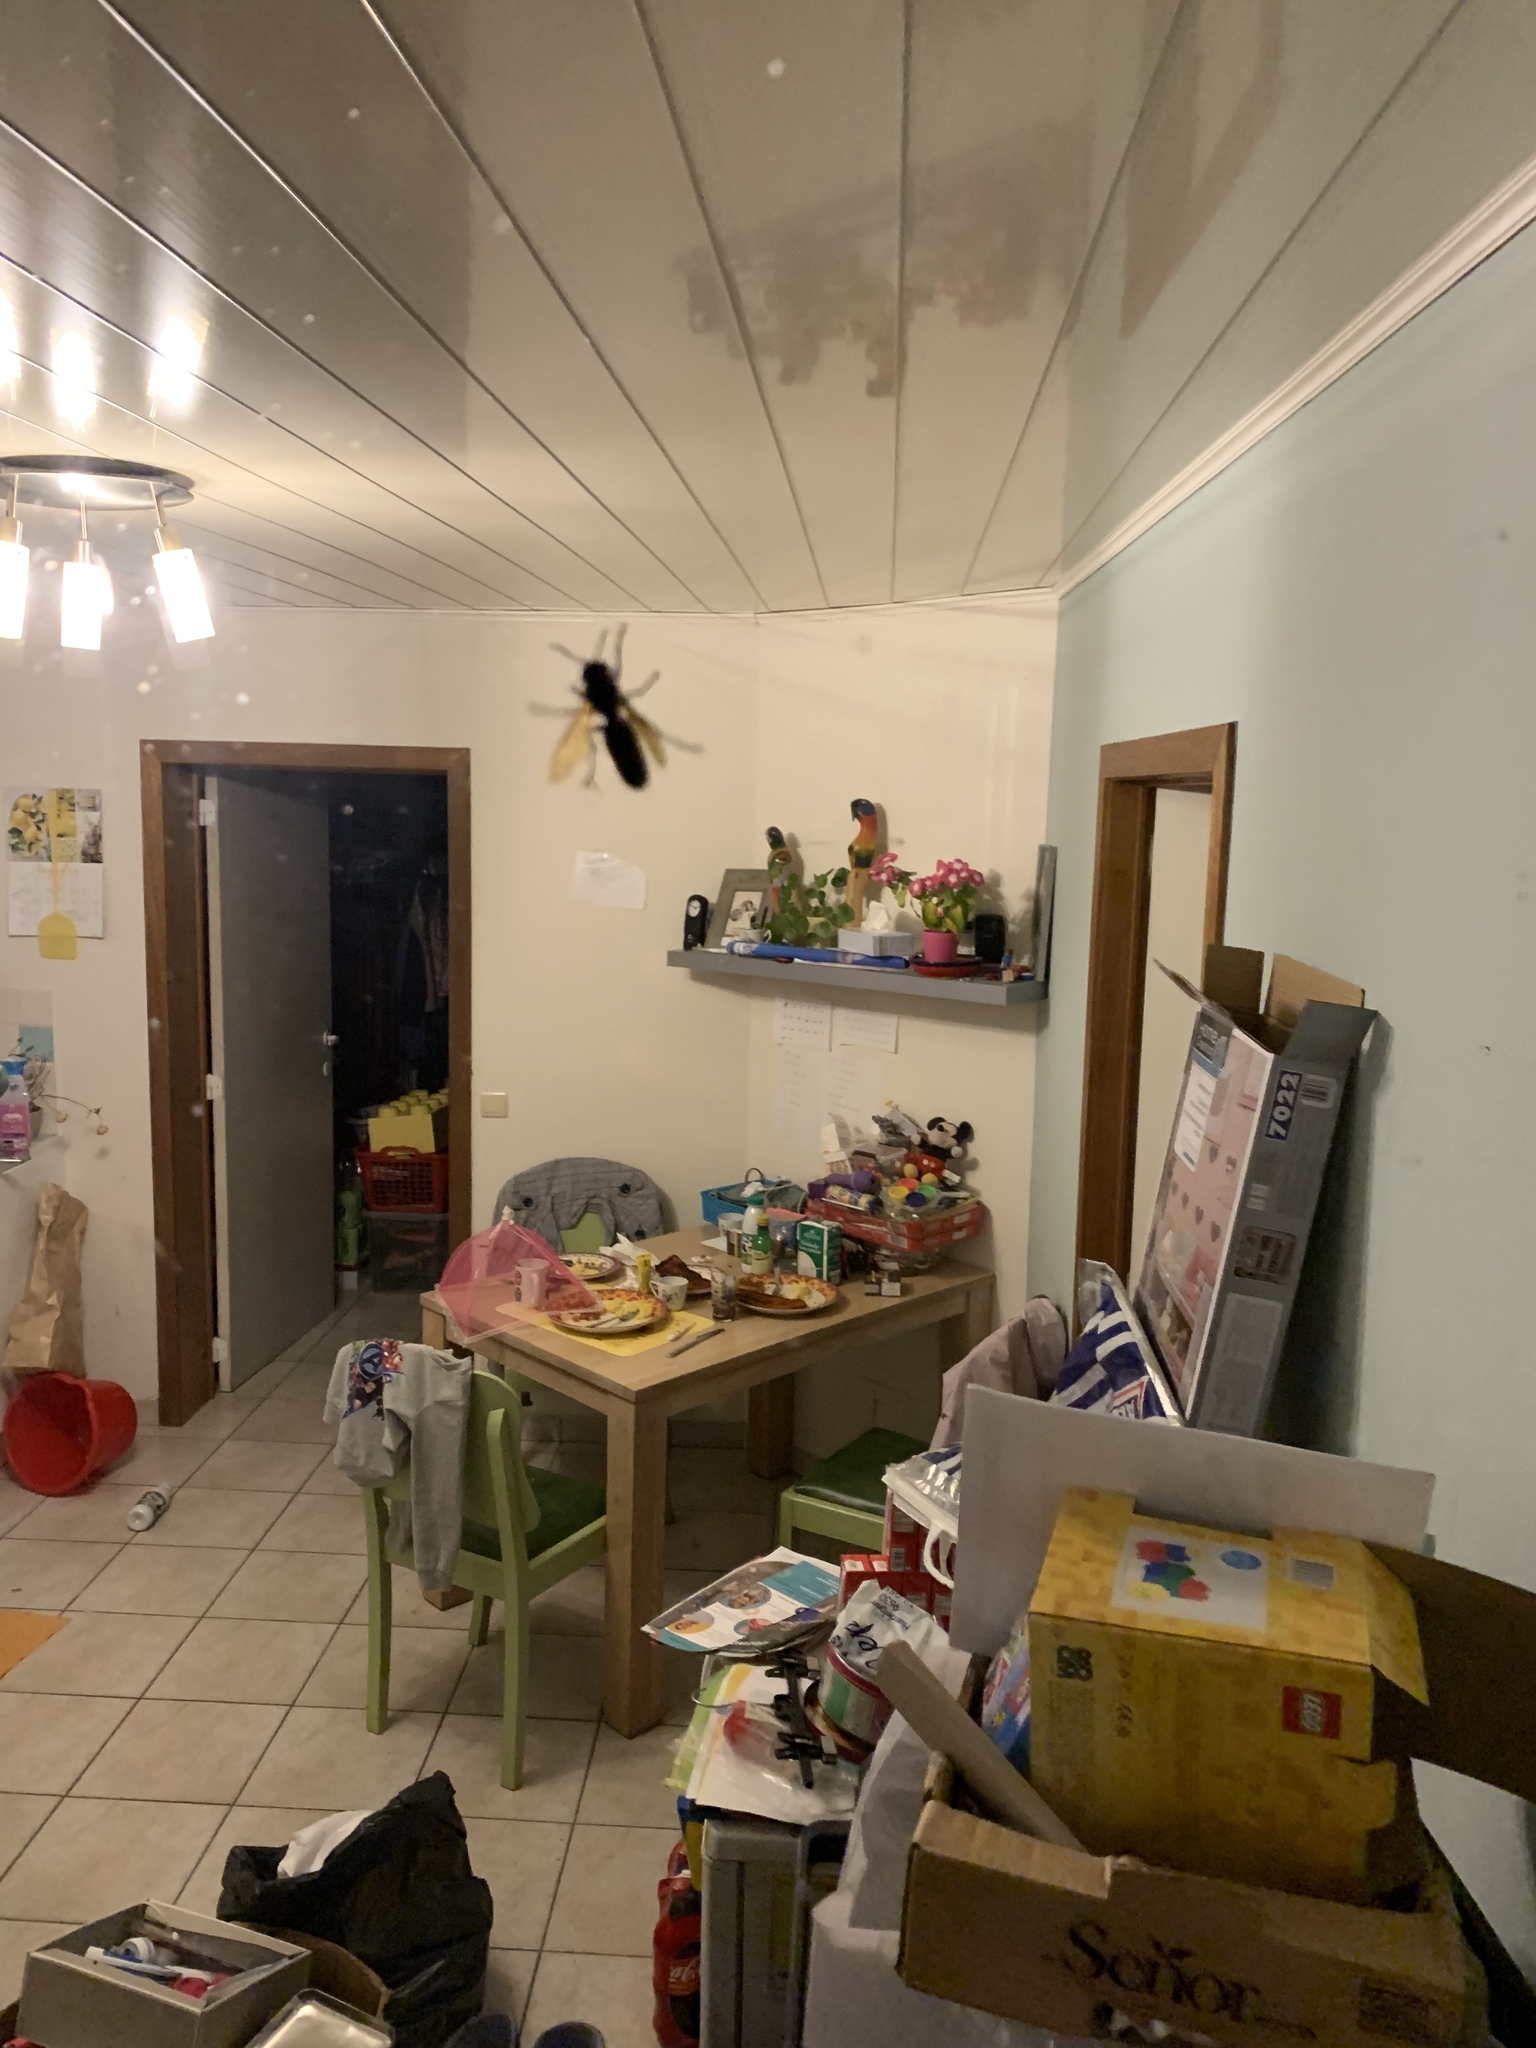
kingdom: Animalia
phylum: Arthropoda
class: Insecta
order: Hymenoptera
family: Vespidae
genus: Vespa
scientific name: Vespa crabro
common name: Hornet
